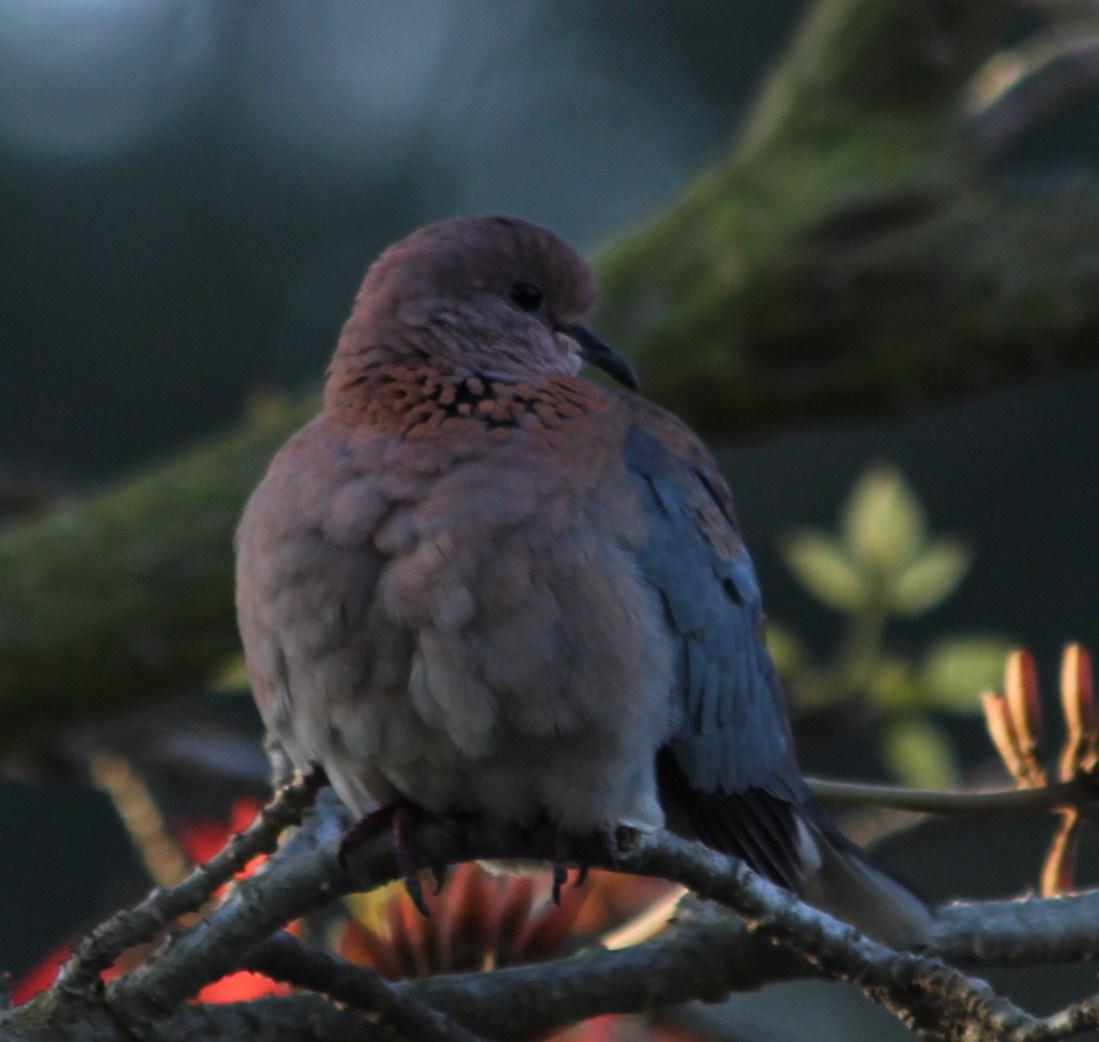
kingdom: Animalia
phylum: Chordata
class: Aves
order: Columbiformes
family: Columbidae
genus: Spilopelia
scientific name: Spilopelia senegalensis
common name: Laughing dove
